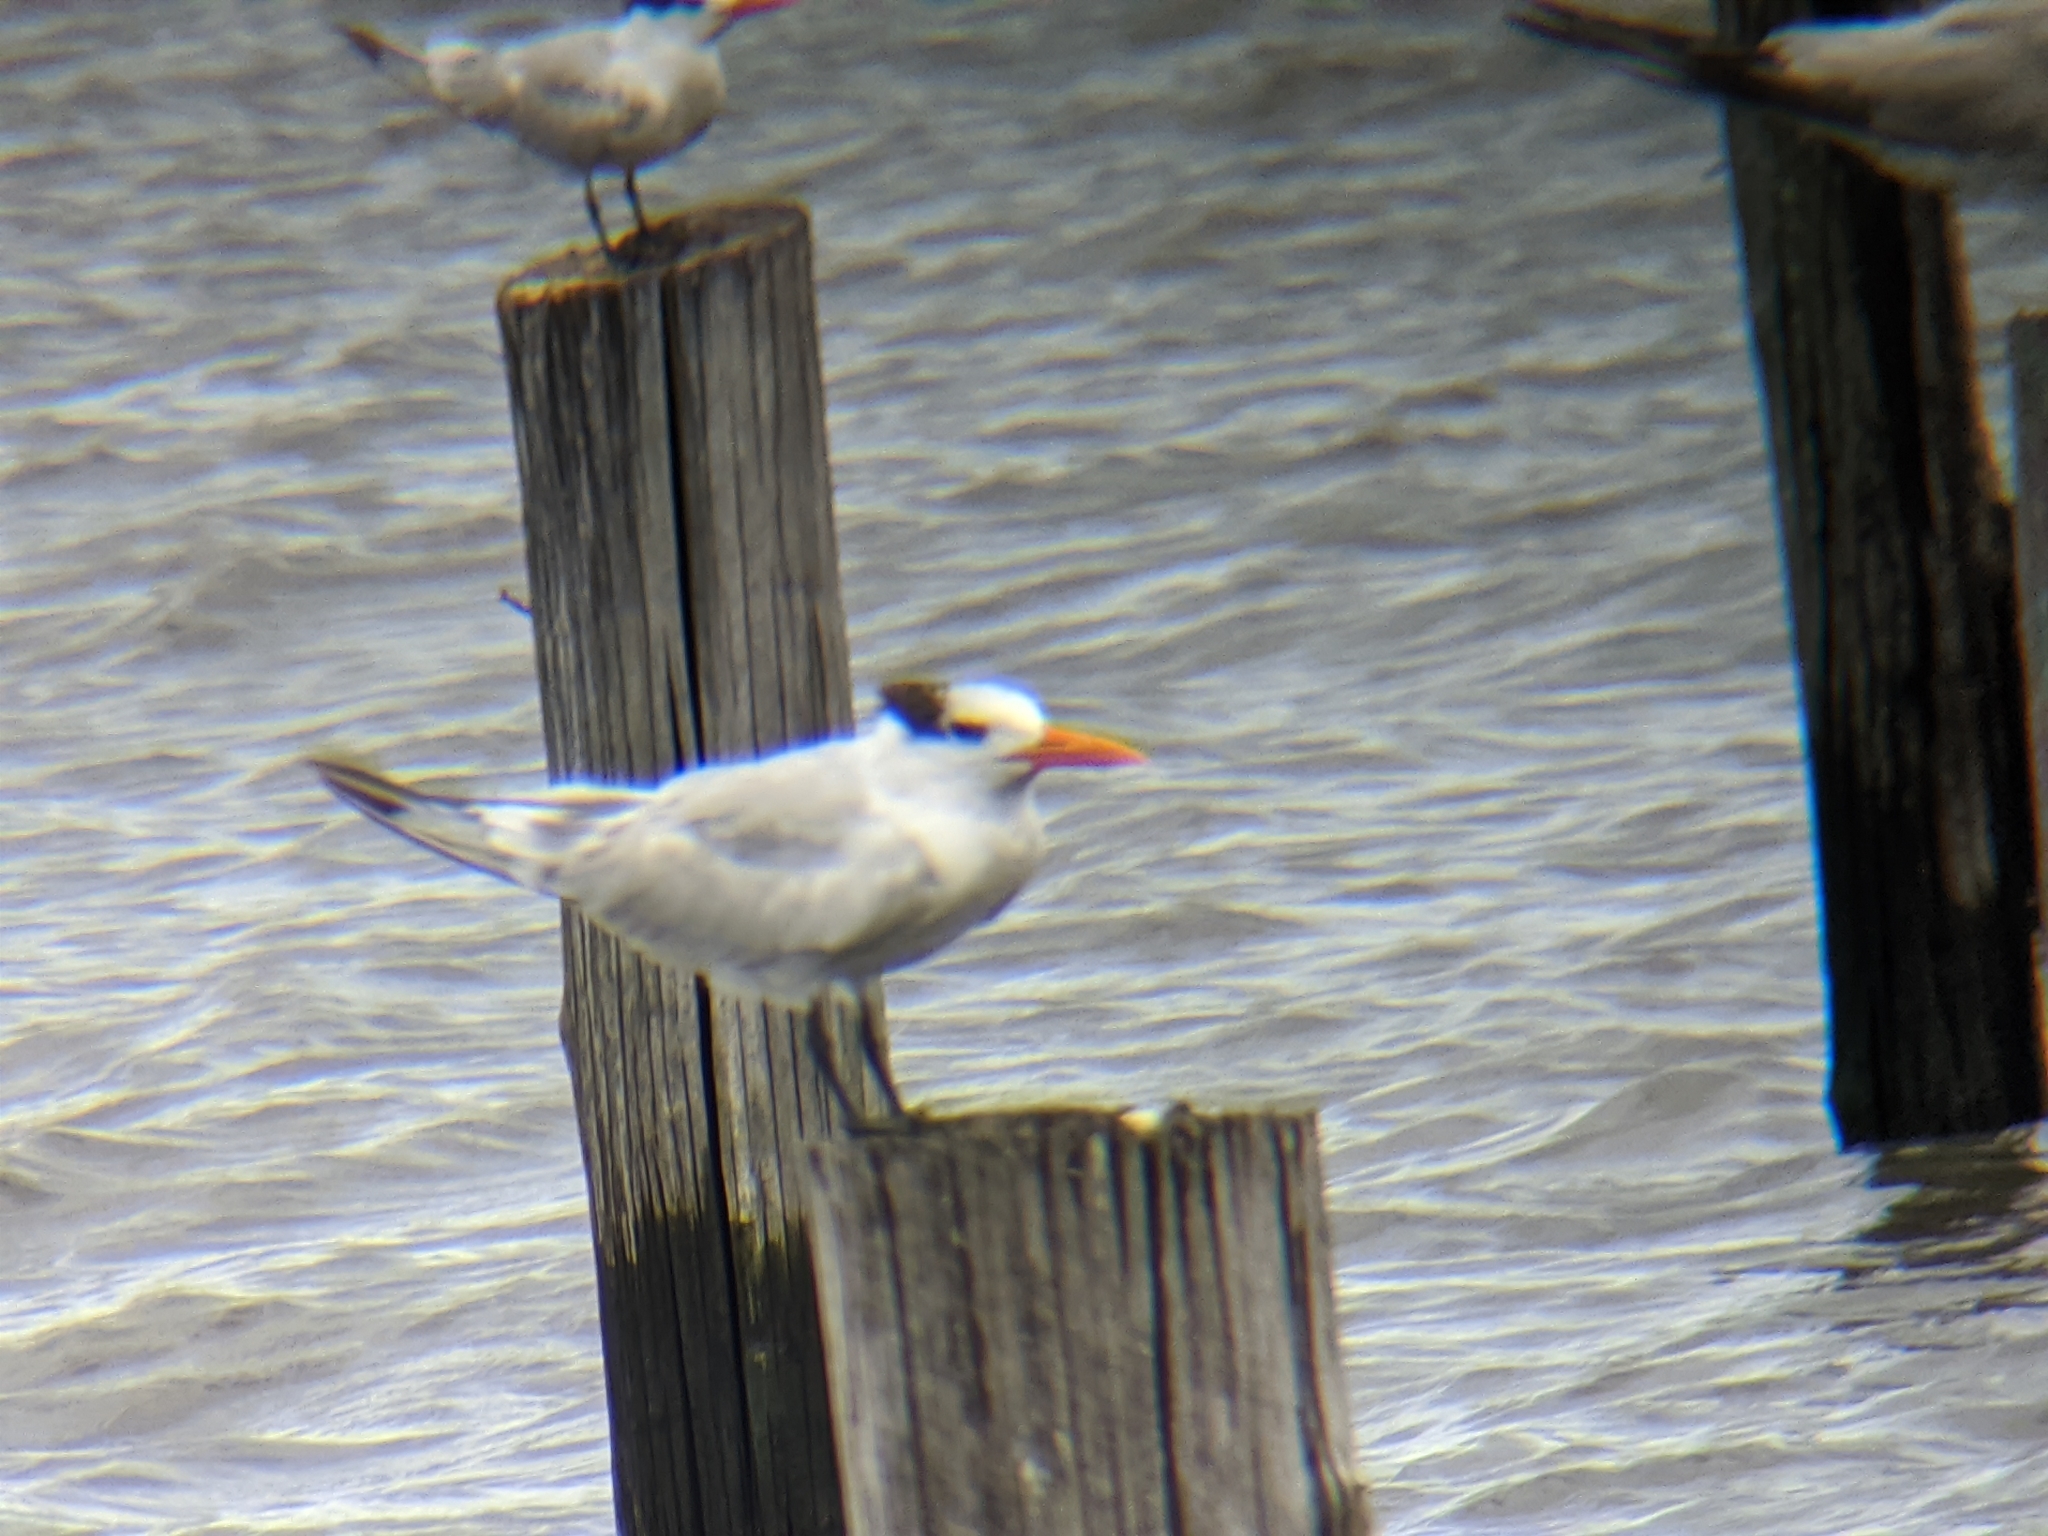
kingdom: Animalia
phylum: Chordata
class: Aves
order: Charadriiformes
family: Laridae
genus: Thalasseus
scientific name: Thalasseus maximus
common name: Royal tern
